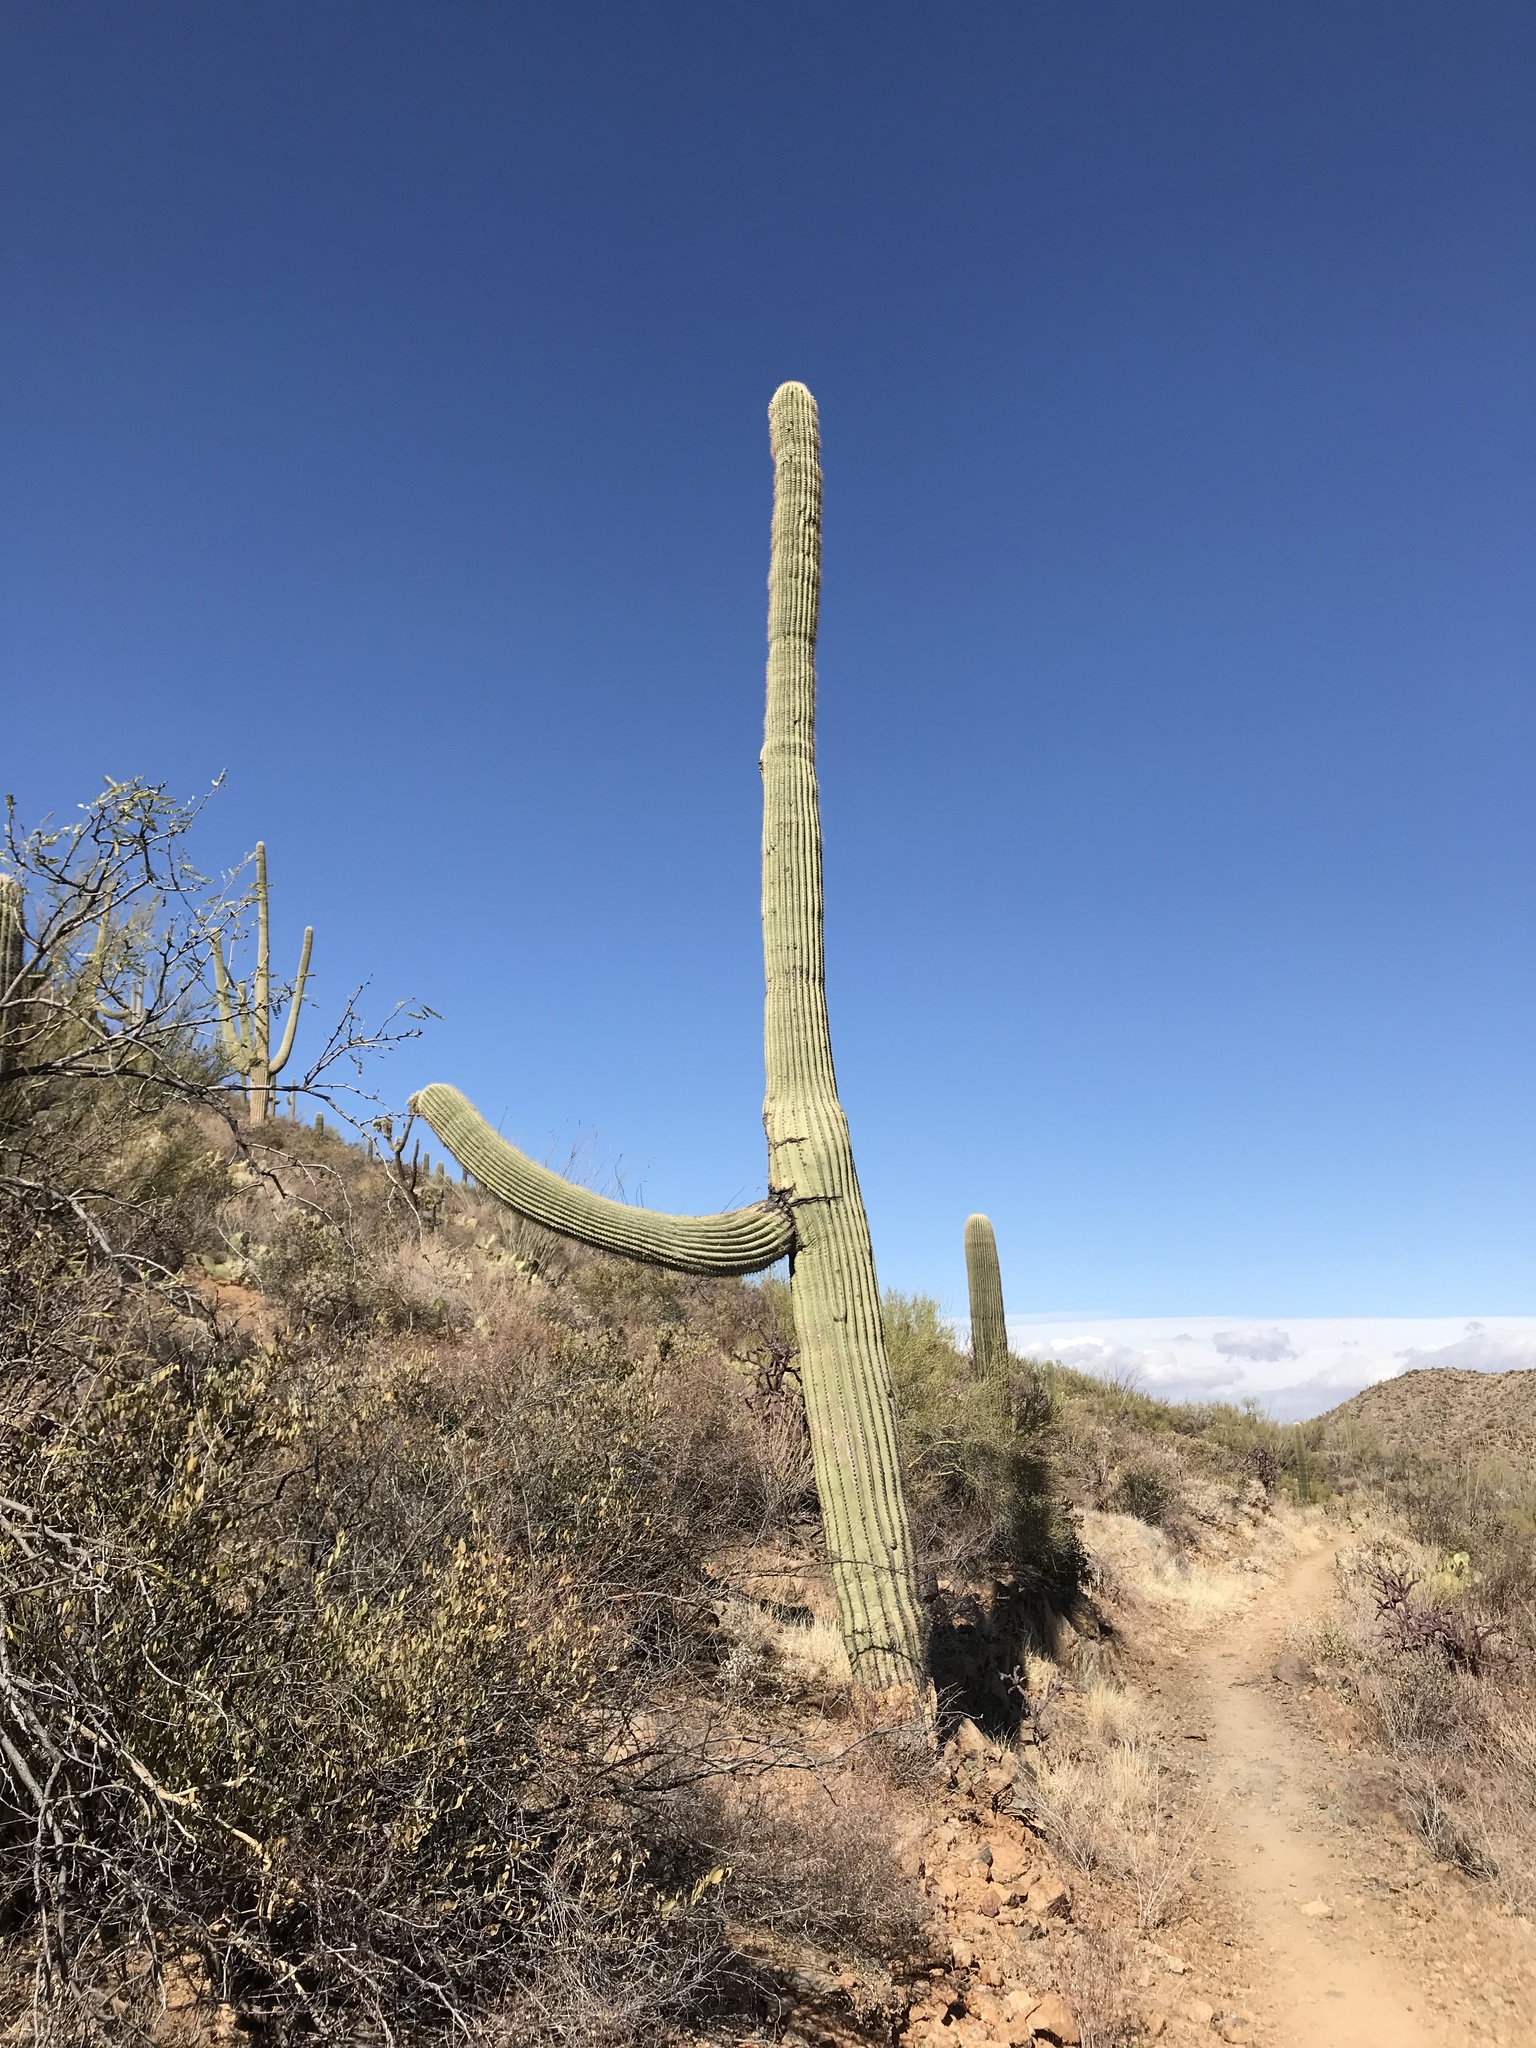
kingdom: Plantae
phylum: Tracheophyta
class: Magnoliopsida
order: Caryophyllales
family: Cactaceae
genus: Carnegiea
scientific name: Carnegiea gigantea
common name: Saguaro
